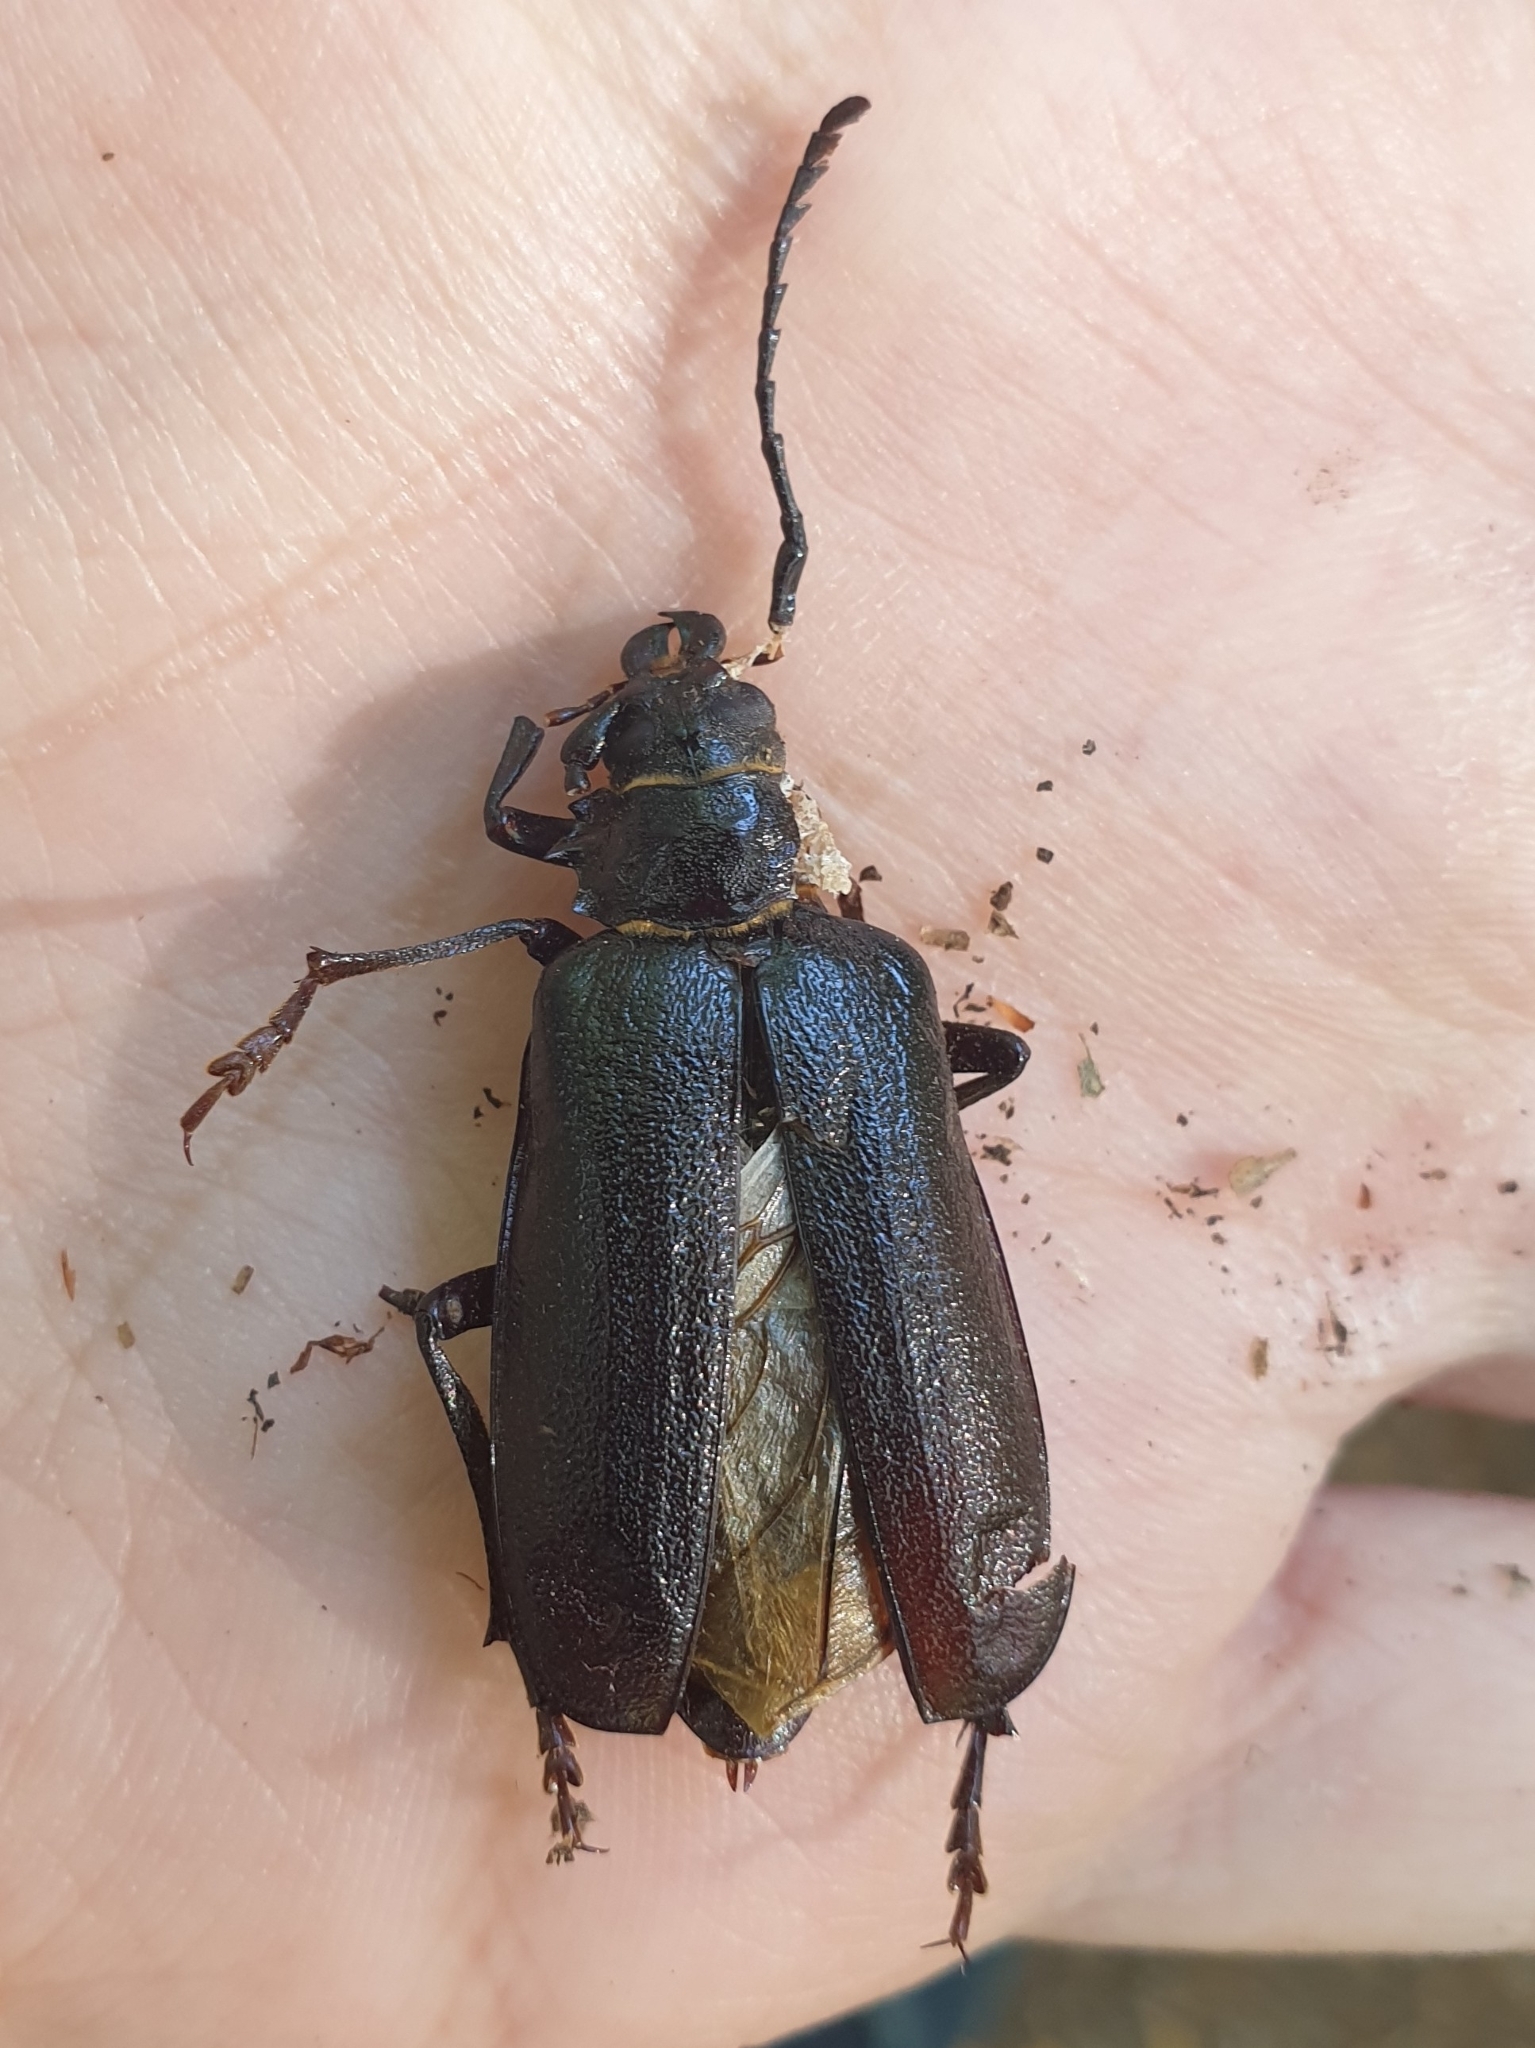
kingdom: Animalia
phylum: Arthropoda
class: Insecta
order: Coleoptera
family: Cerambycidae
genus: Prionus
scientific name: Prionus coriarius
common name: Tanner beetle
